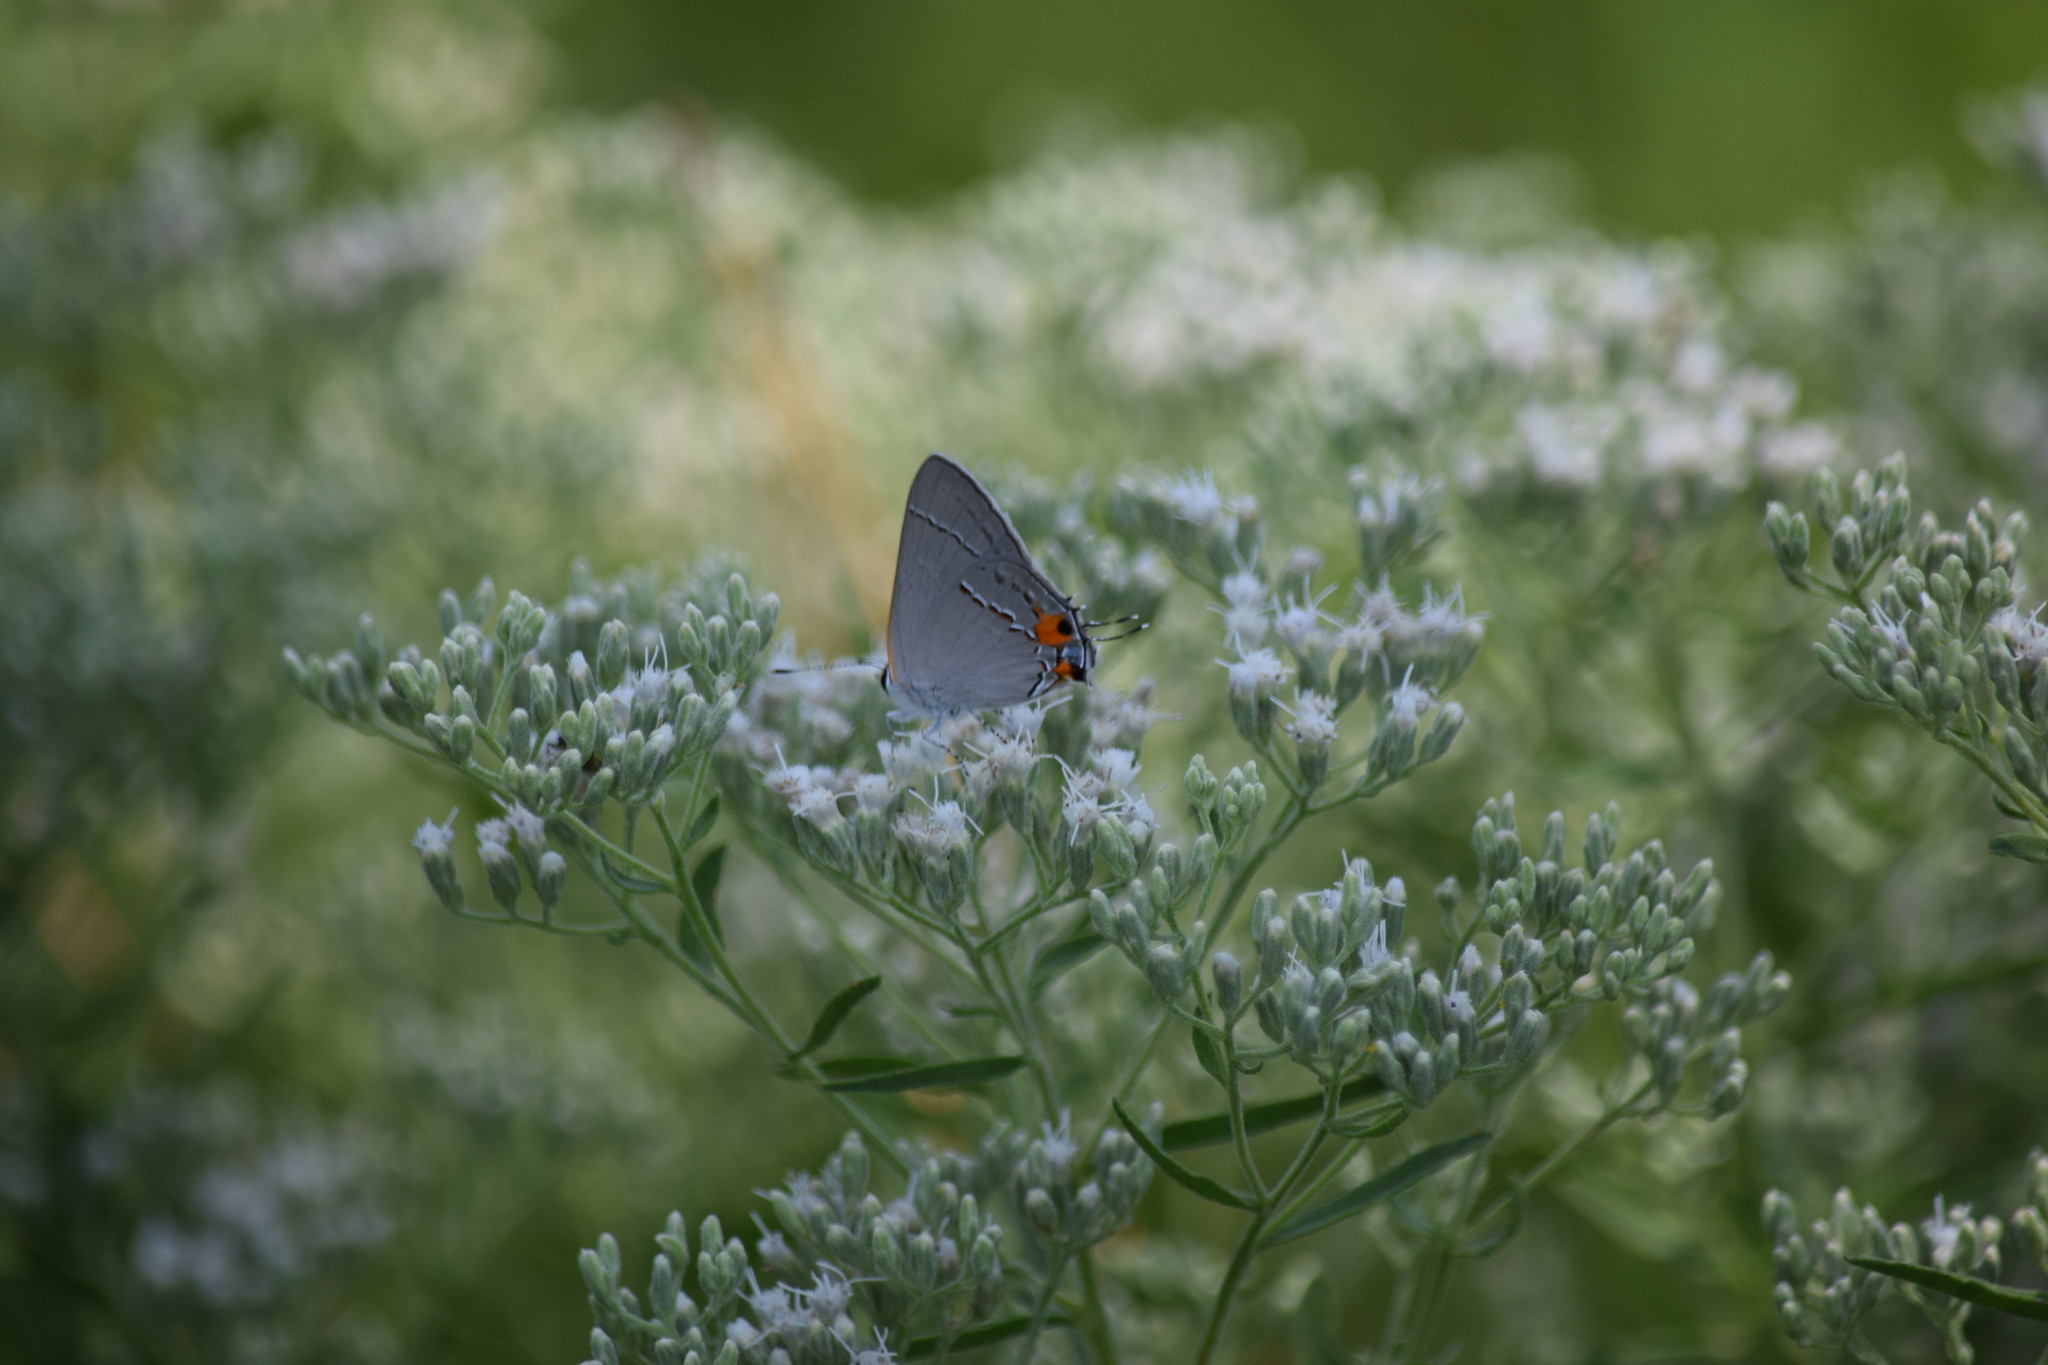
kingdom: Animalia
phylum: Arthropoda
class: Insecta
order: Lepidoptera
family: Lycaenidae
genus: Strymon
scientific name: Strymon melinus
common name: Gray hairstreak
